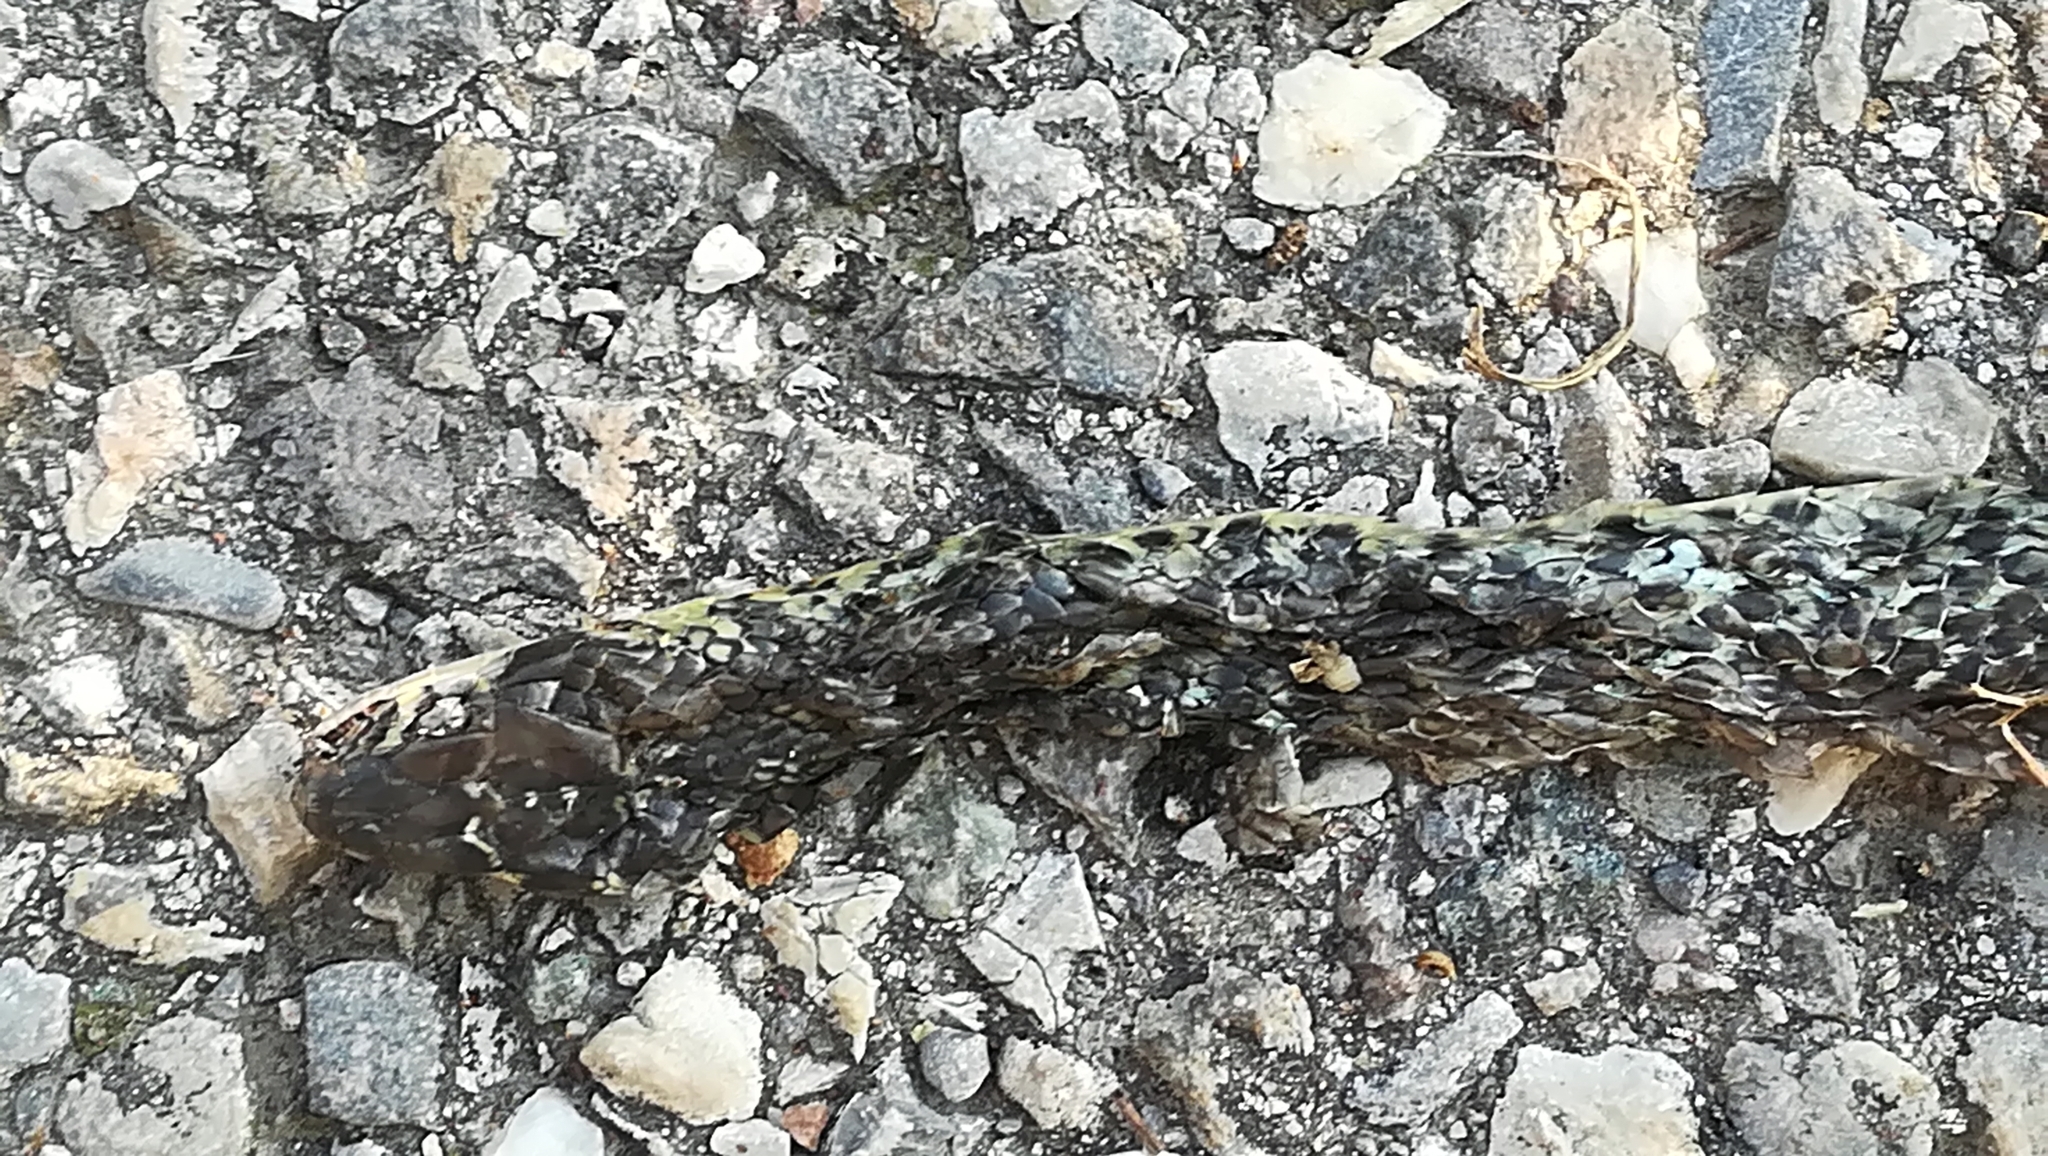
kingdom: Animalia
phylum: Chordata
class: Squamata
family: Colubridae
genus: Hierophis
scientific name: Hierophis viridiflavus
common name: Green whip snake
